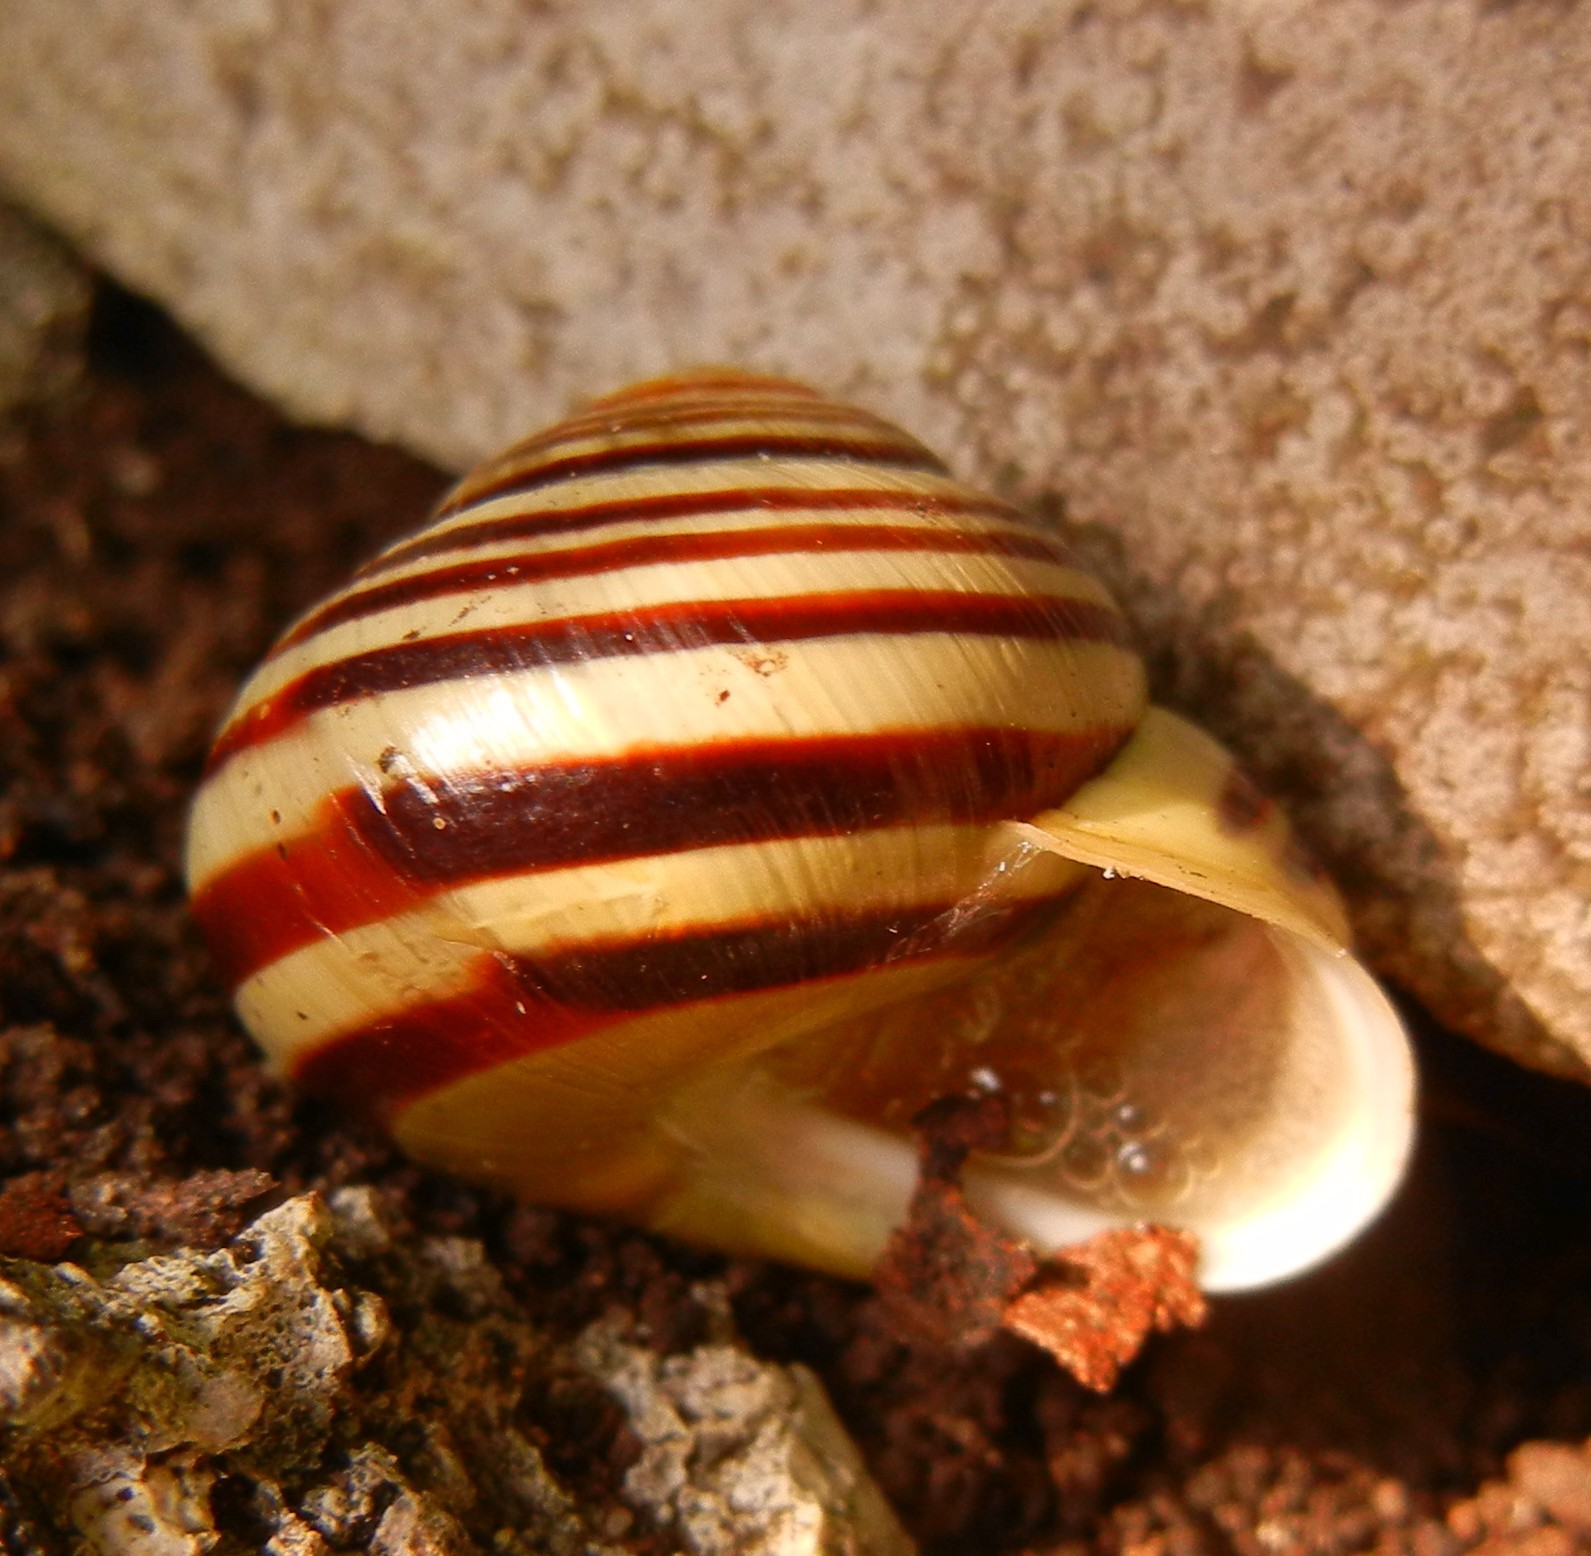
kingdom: Animalia
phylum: Mollusca
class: Gastropoda
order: Stylommatophora
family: Helicidae
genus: Cepaea
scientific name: Cepaea hortensis
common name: White-lip gardensnail
